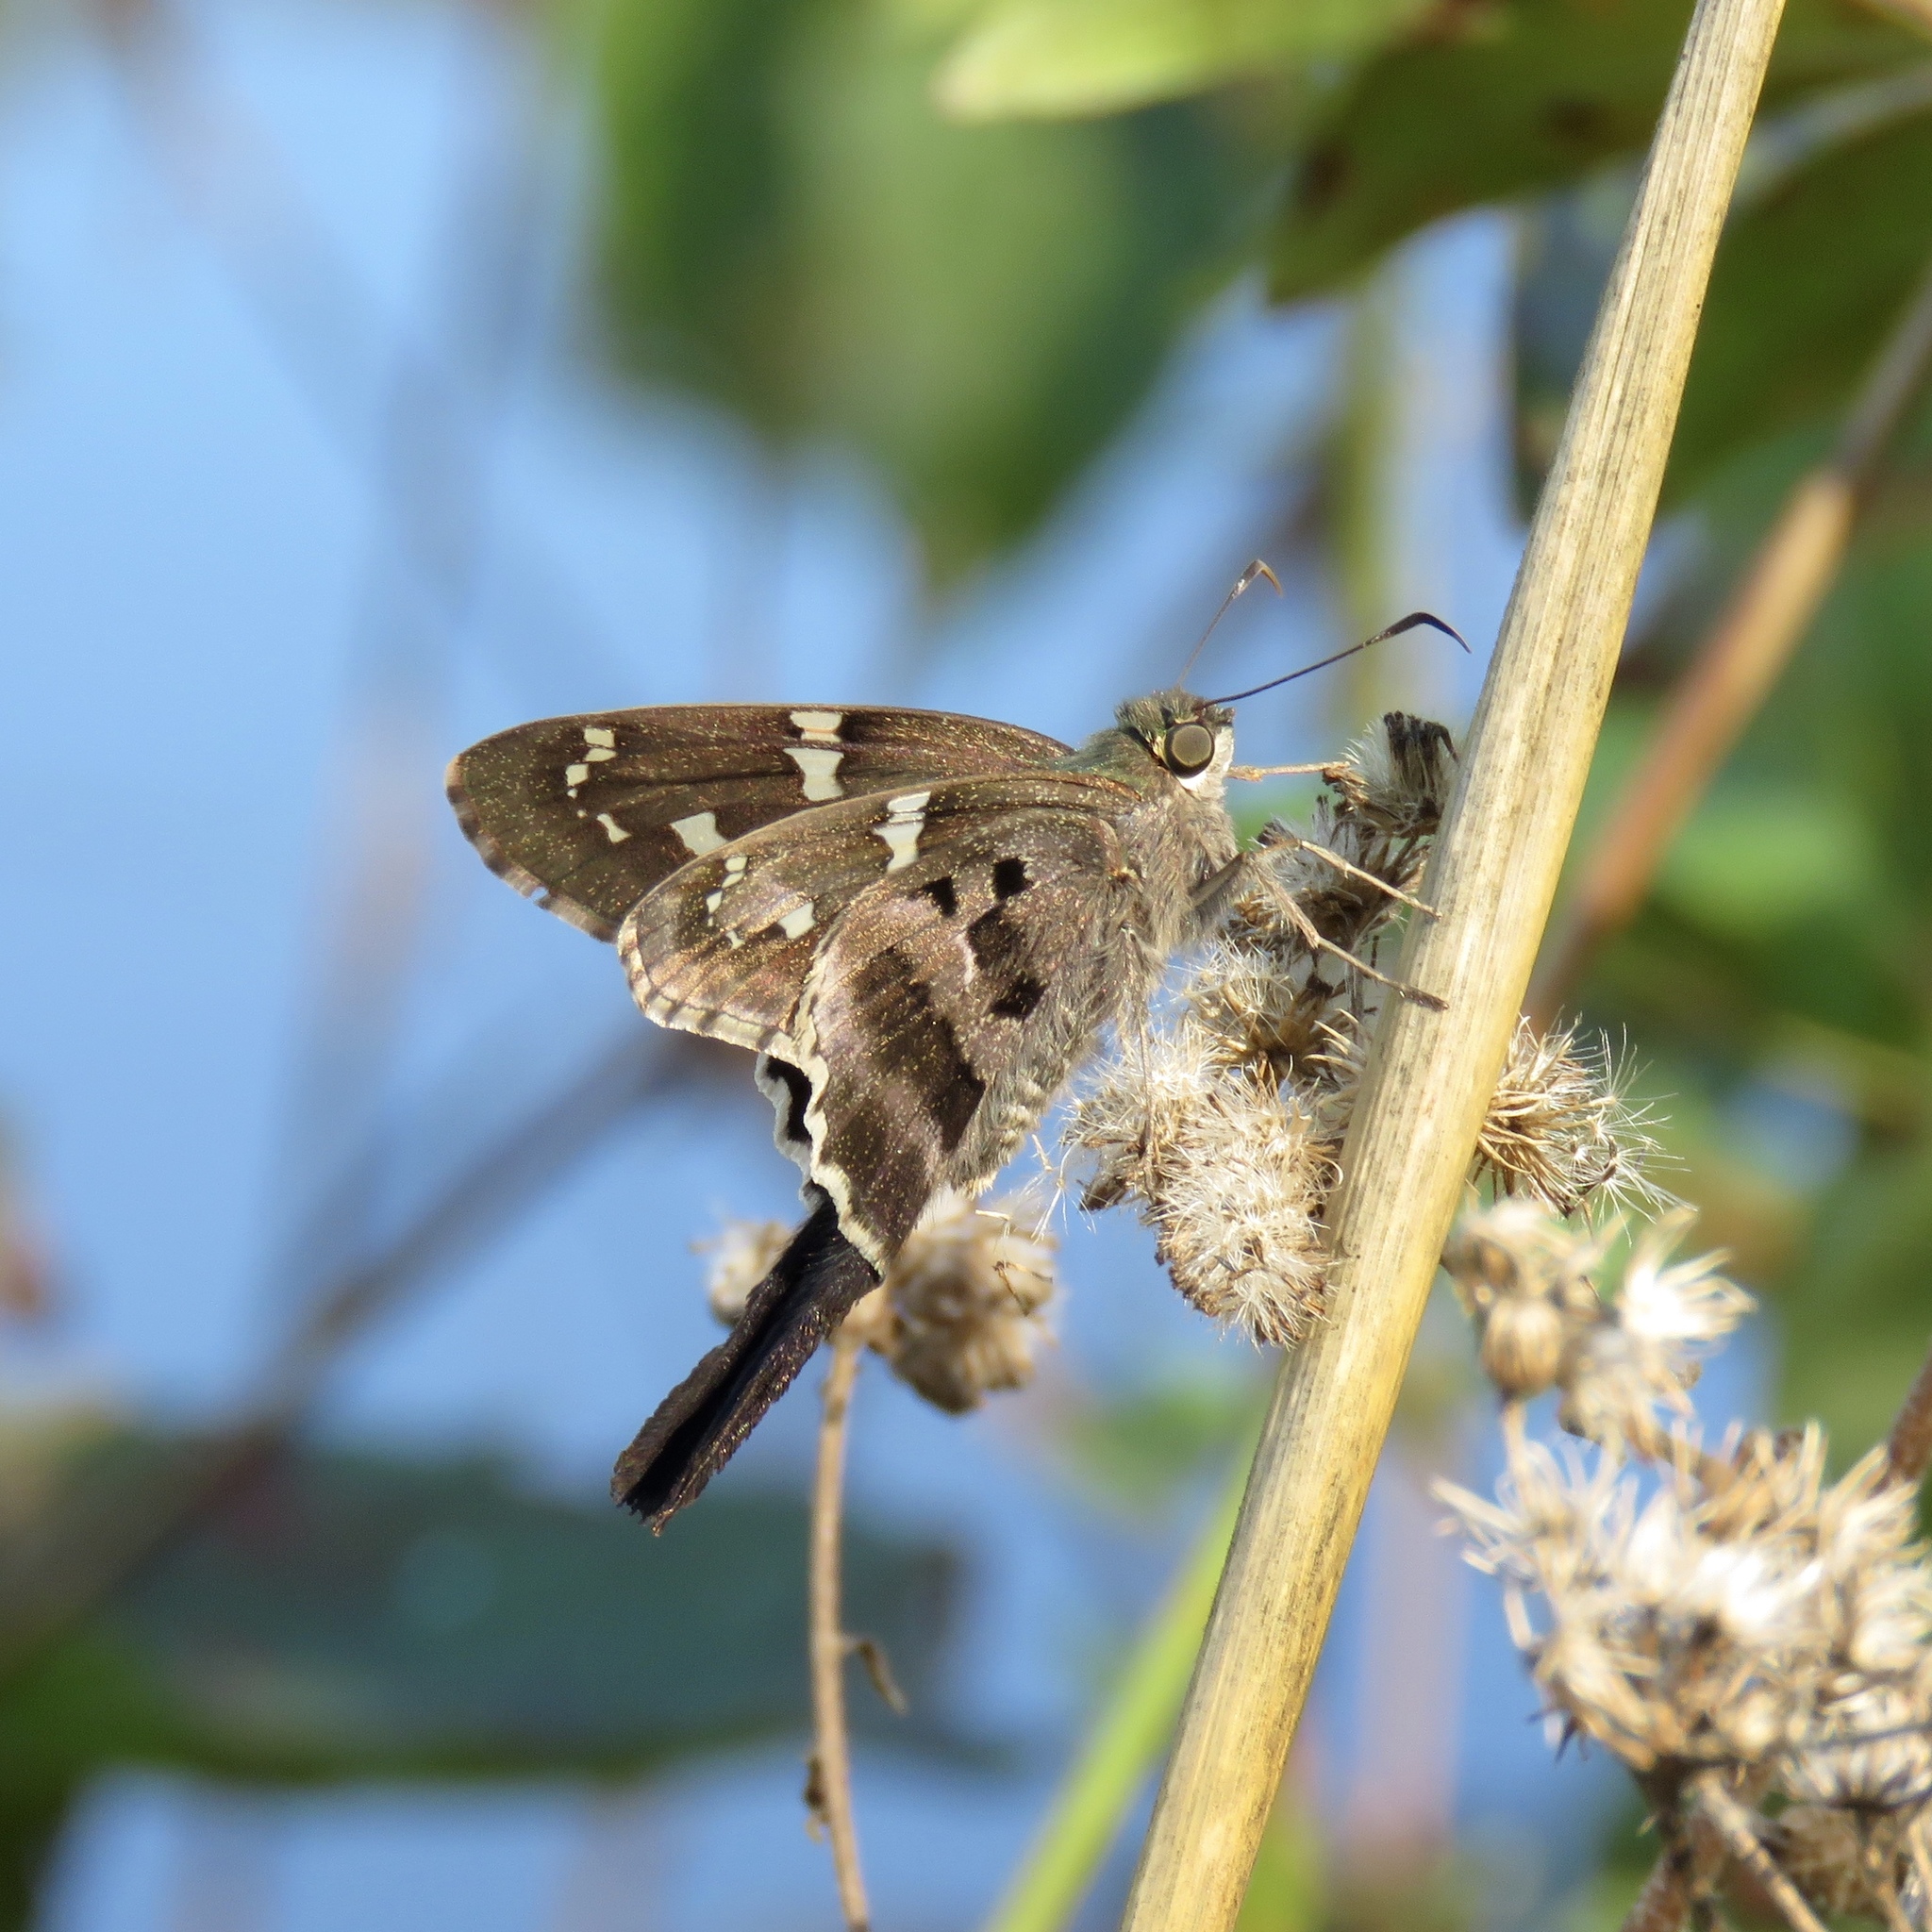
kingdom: Animalia
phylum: Arthropoda
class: Insecta
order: Lepidoptera
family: Hesperiidae
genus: Urbanus
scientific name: Urbanus proteus
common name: Long-tailed skipper
